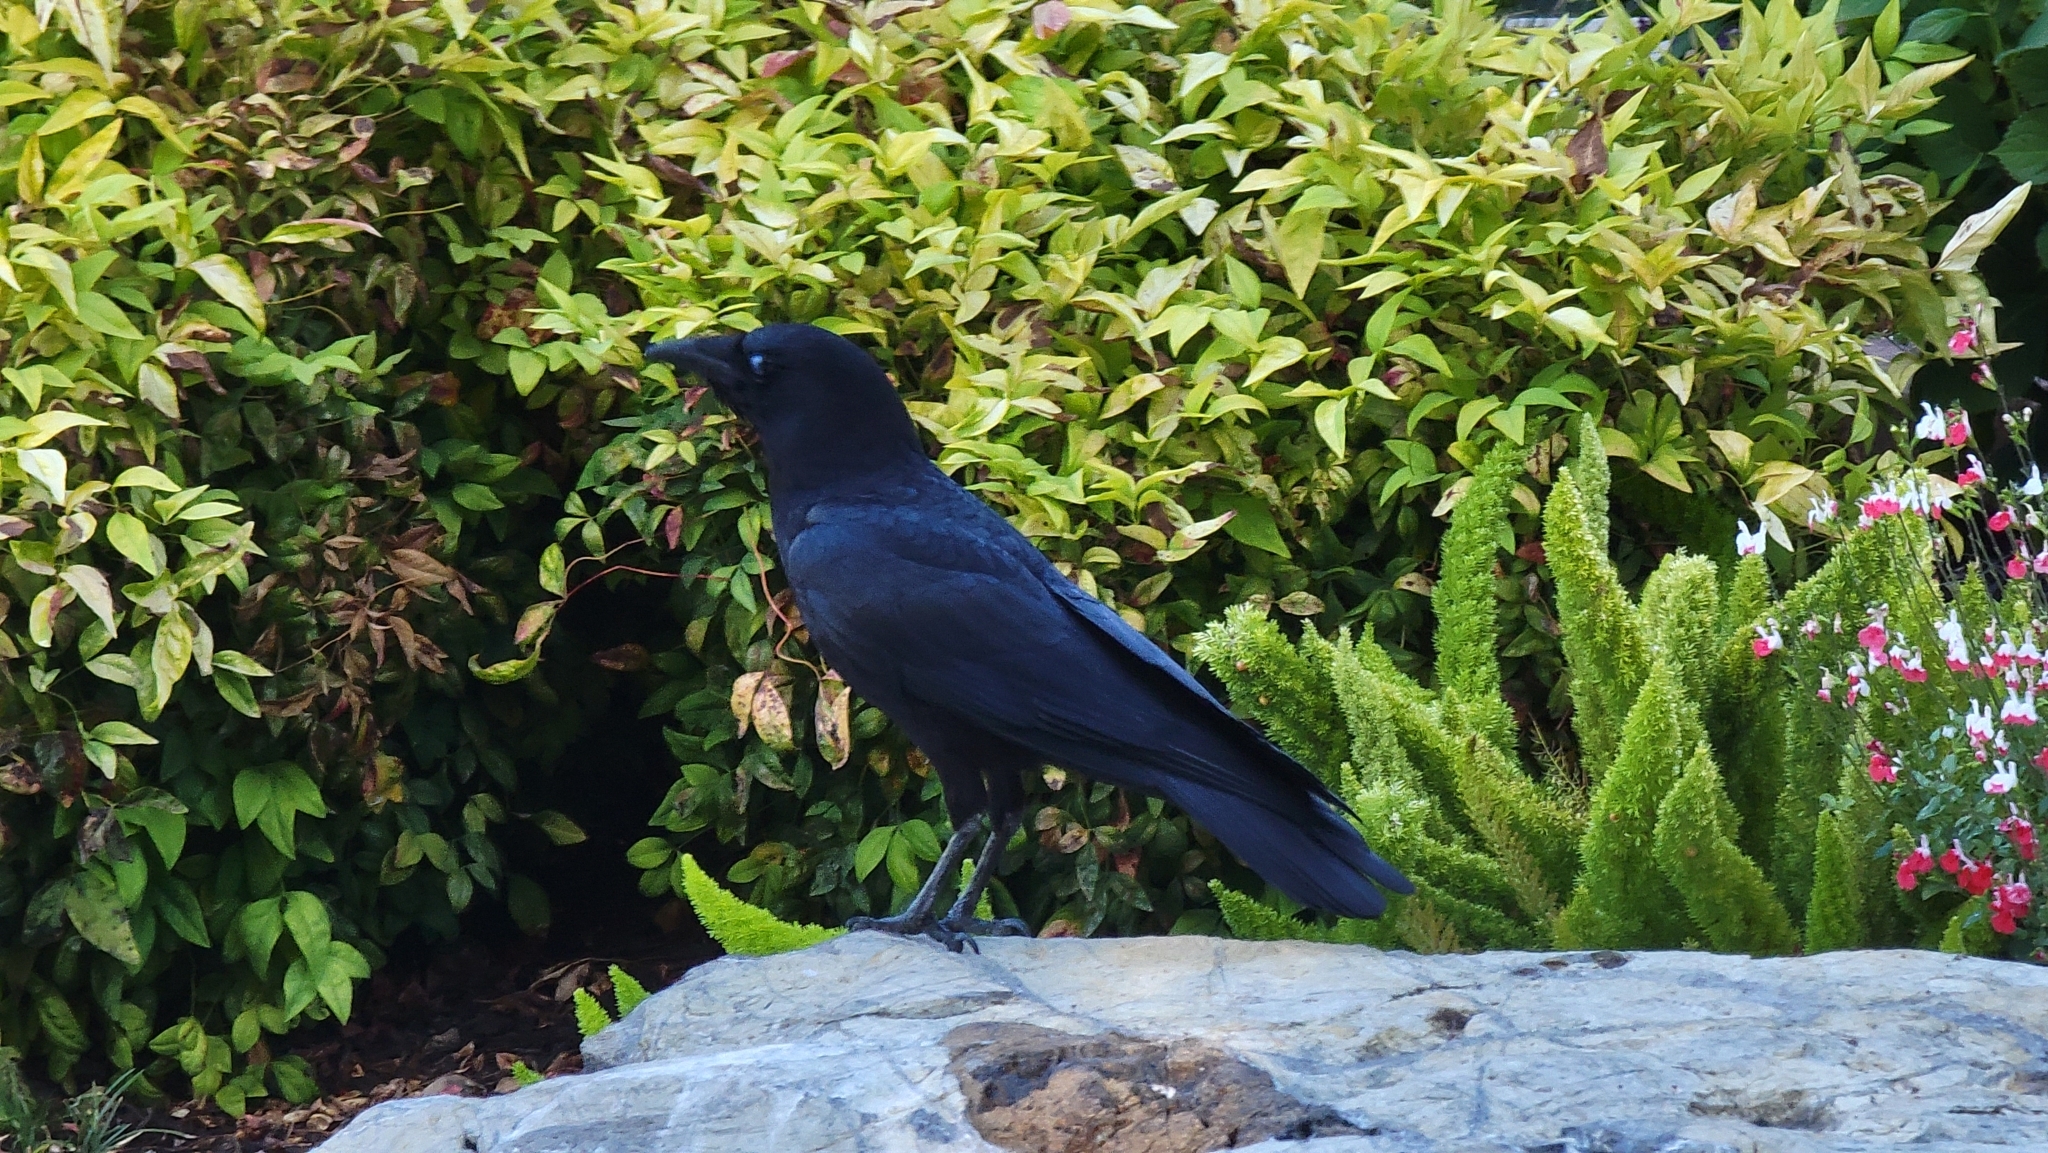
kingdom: Animalia
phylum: Chordata
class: Aves
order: Passeriformes
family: Corvidae
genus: Corvus
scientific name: Corvus brachyrhynchos
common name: American crow
